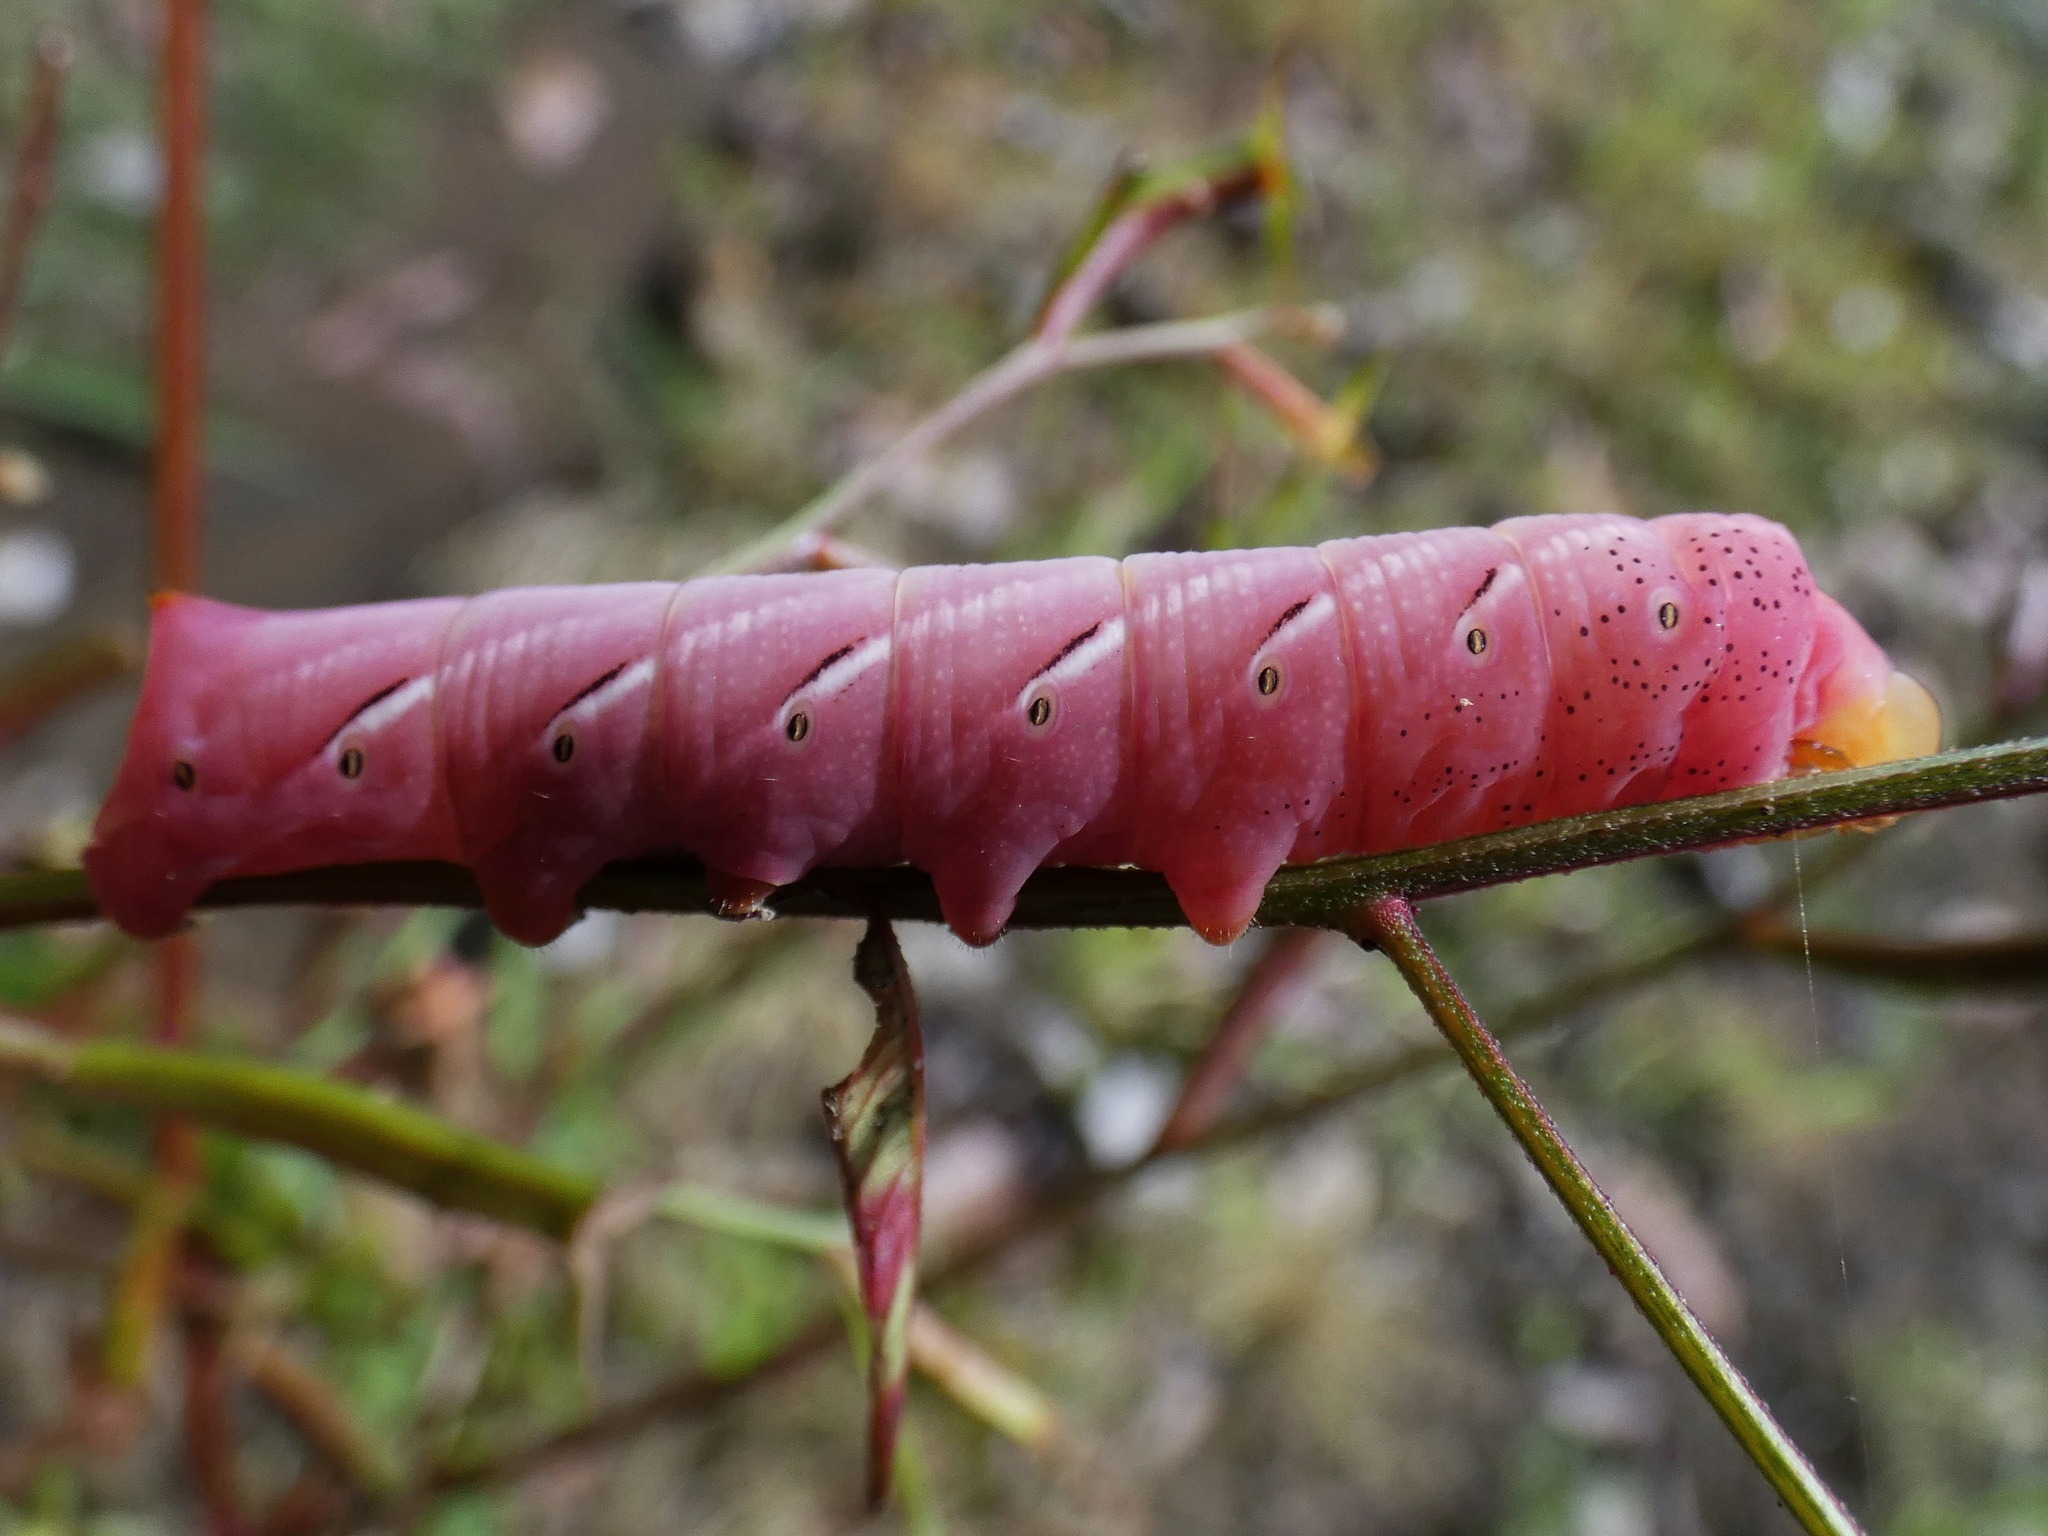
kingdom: Animalia
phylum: Arthropoda
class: Insecta
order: Lepidoptera
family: Sphingidae
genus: Eumorpha
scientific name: Eumorpha fasciatus
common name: Banded sphinx
